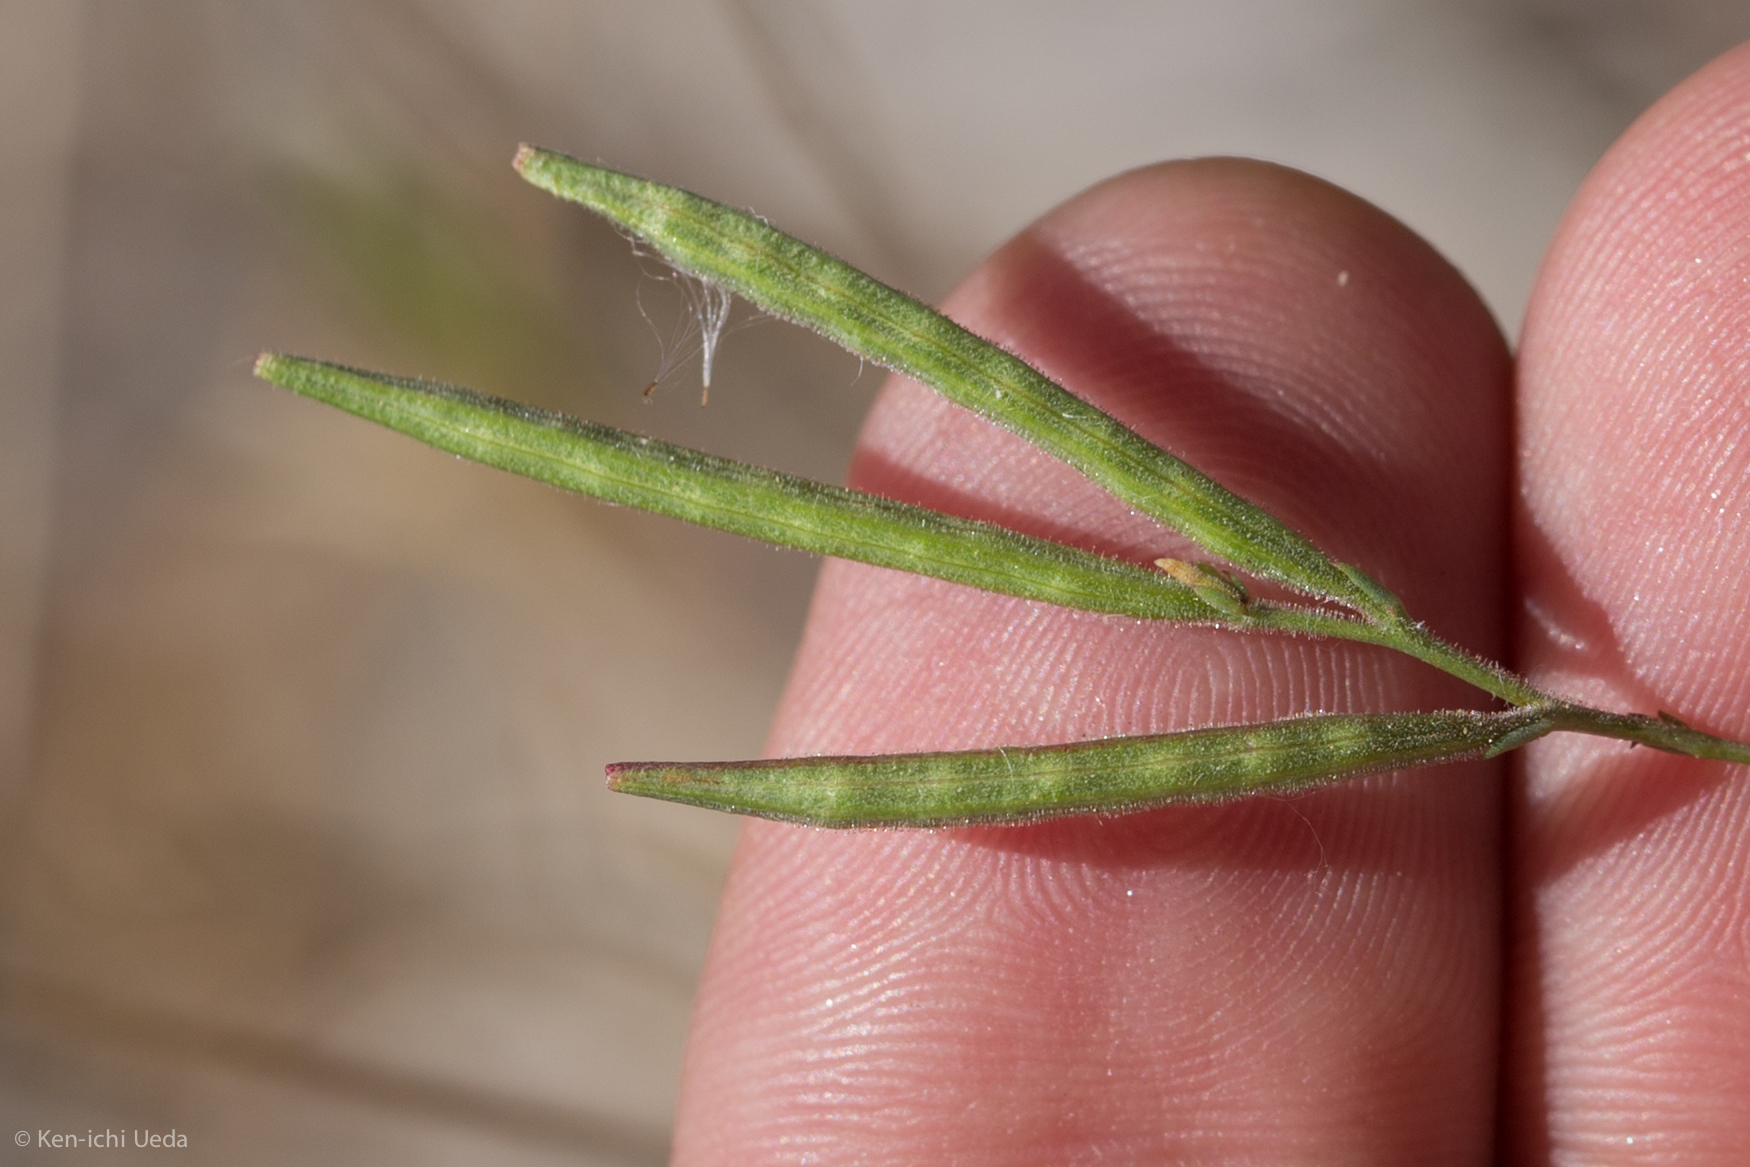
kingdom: Plantae
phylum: Tracheophyta
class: Magnoliopsida
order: Myrtales
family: Onagraceae
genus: Epilobium
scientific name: Epilobium brachycarpum
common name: Annual willowherb
